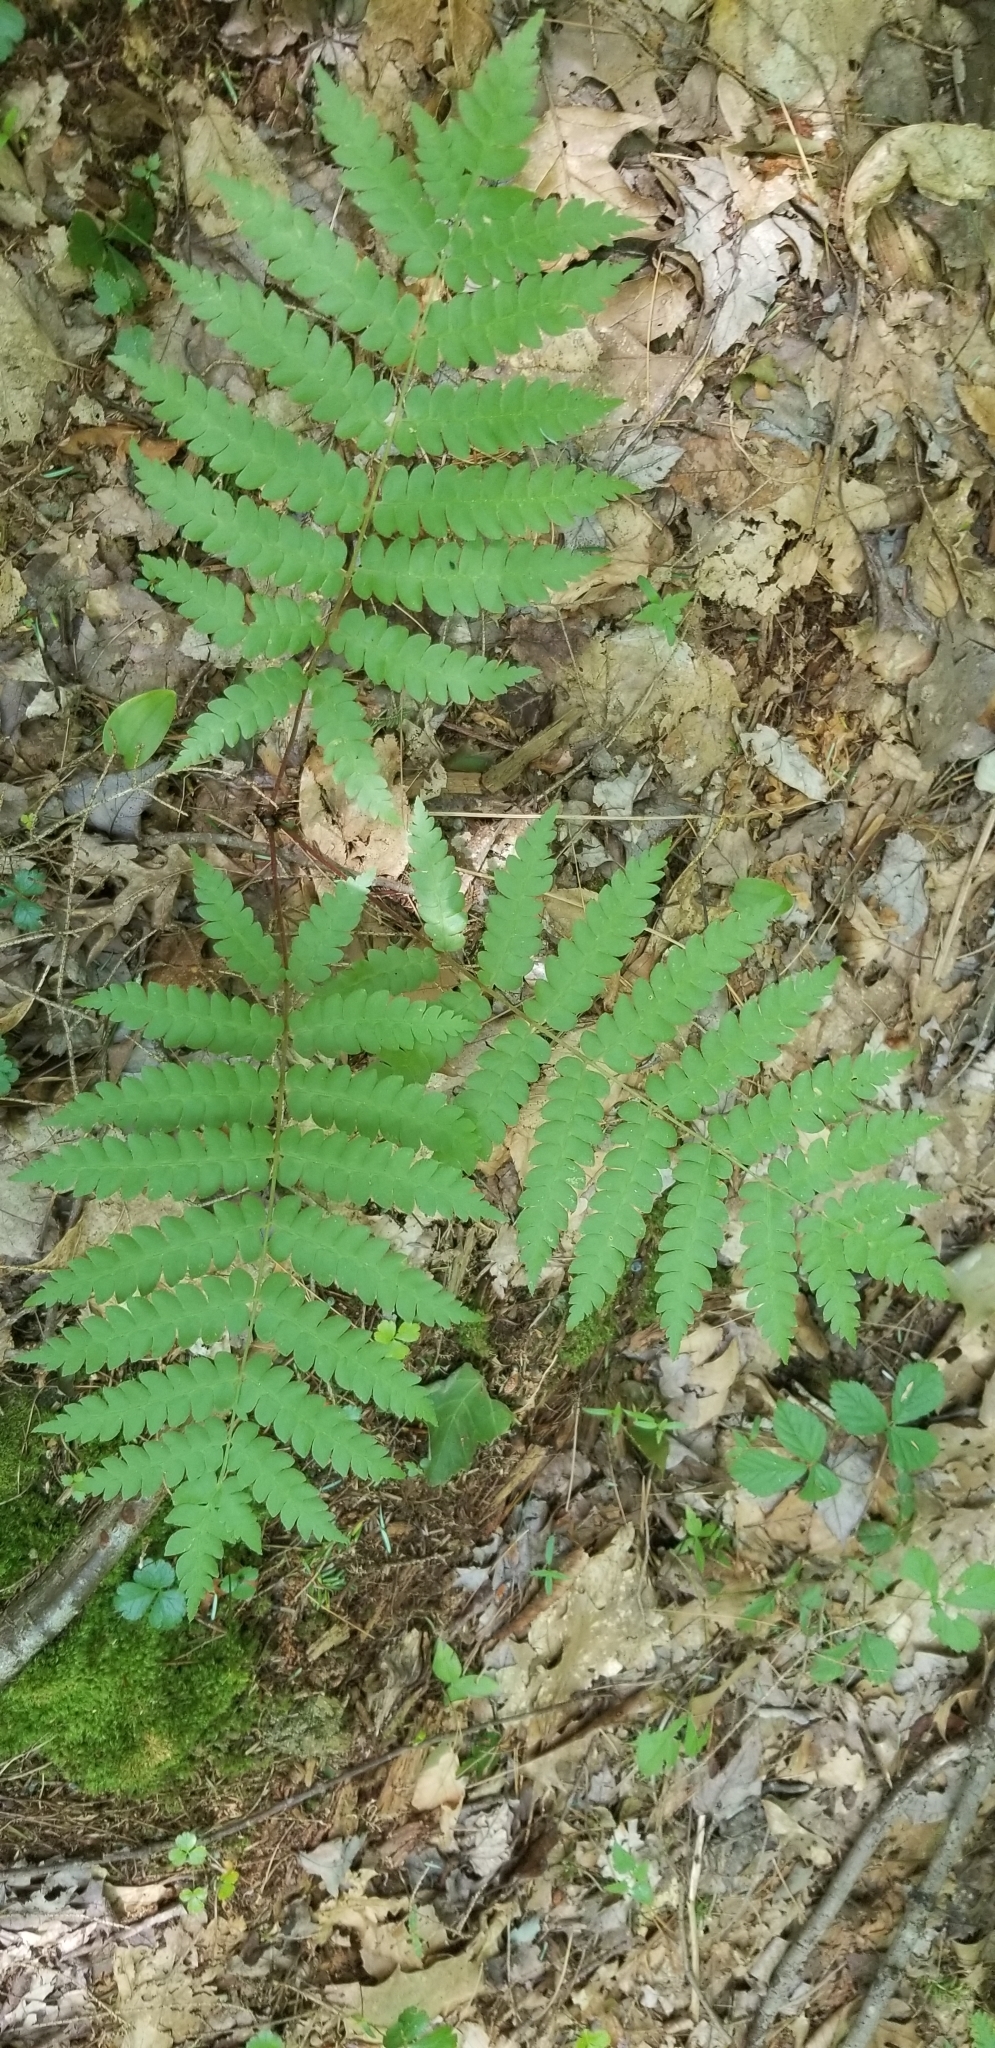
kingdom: Plantae
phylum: Tracheophyta
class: Polypodiopsida
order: Osmundales
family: Osmundaceae
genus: Osmundastrum
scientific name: Osmundastrum cinnamomeum
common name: Cinnamon fern
